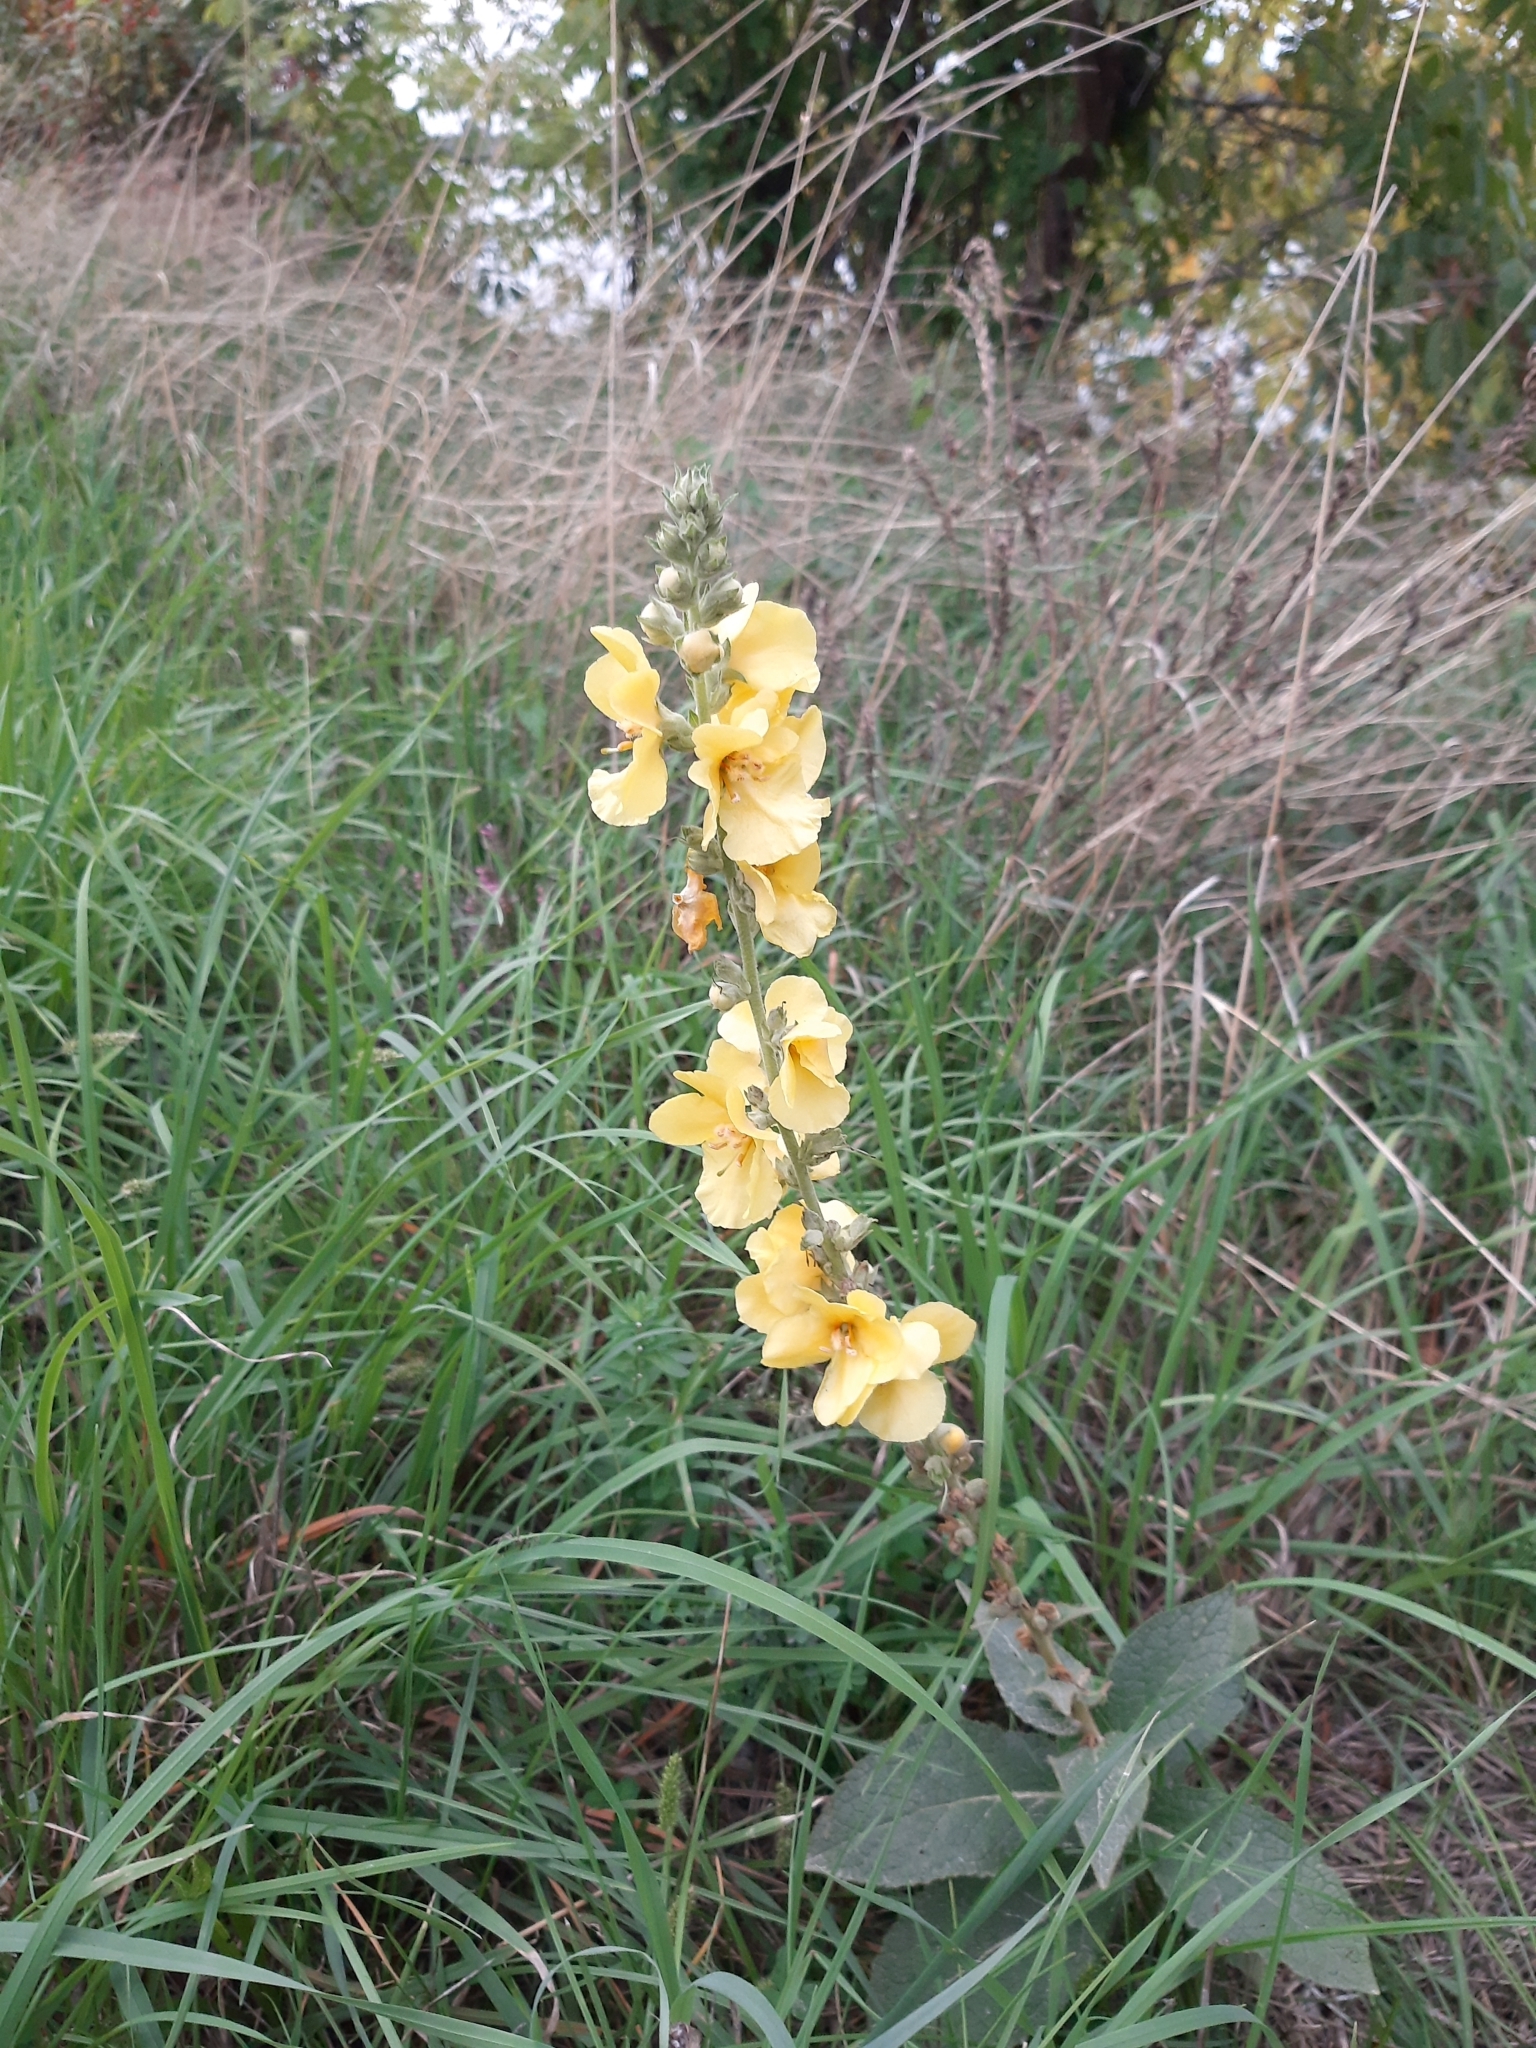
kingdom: Plantae
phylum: Tracheophyta
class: Magnoliopsida
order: Lamiales
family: Scrophulariaceae
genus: Verbascum
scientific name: Verbascum phlomoides
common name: Orange mullein
